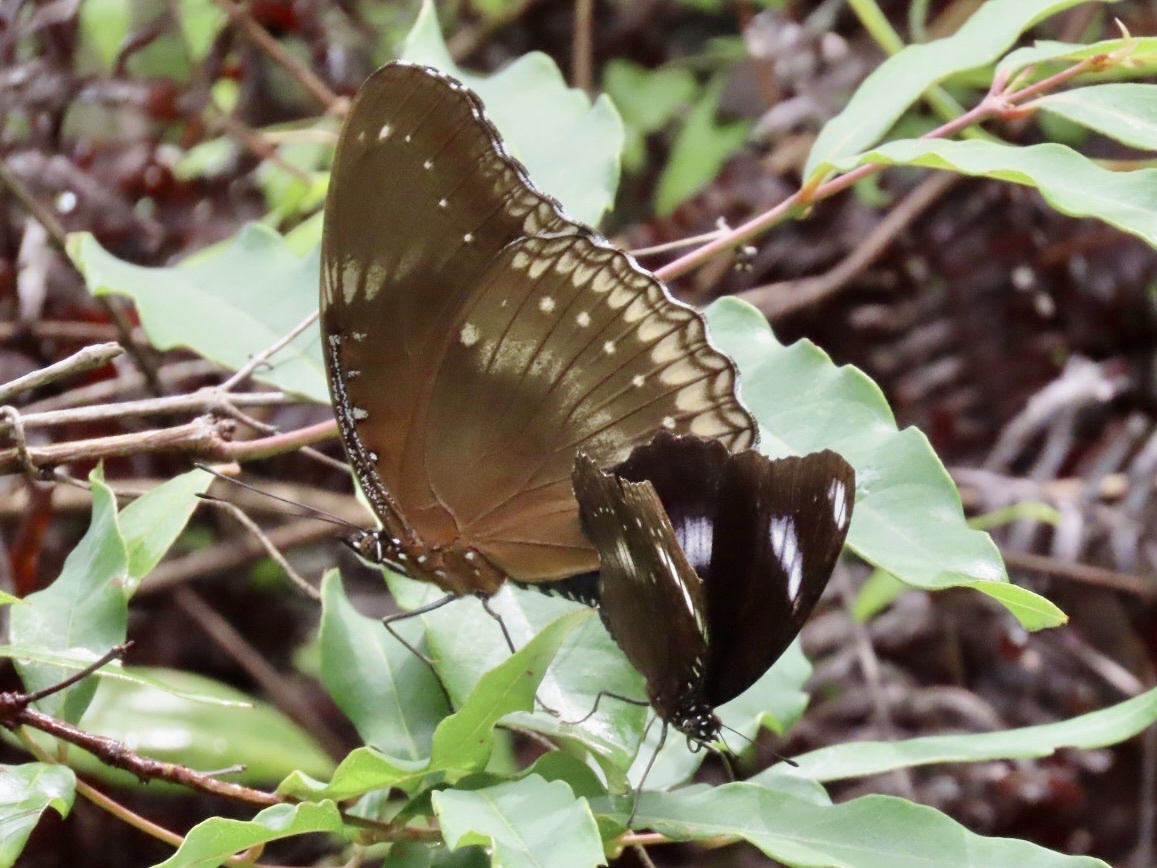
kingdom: Animalia
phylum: Arthropoda
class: Insecta
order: Lepidoptera
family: Nymphalidae
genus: Hypolimnas
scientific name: Hypolimnas bolina
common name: Great eggfly
